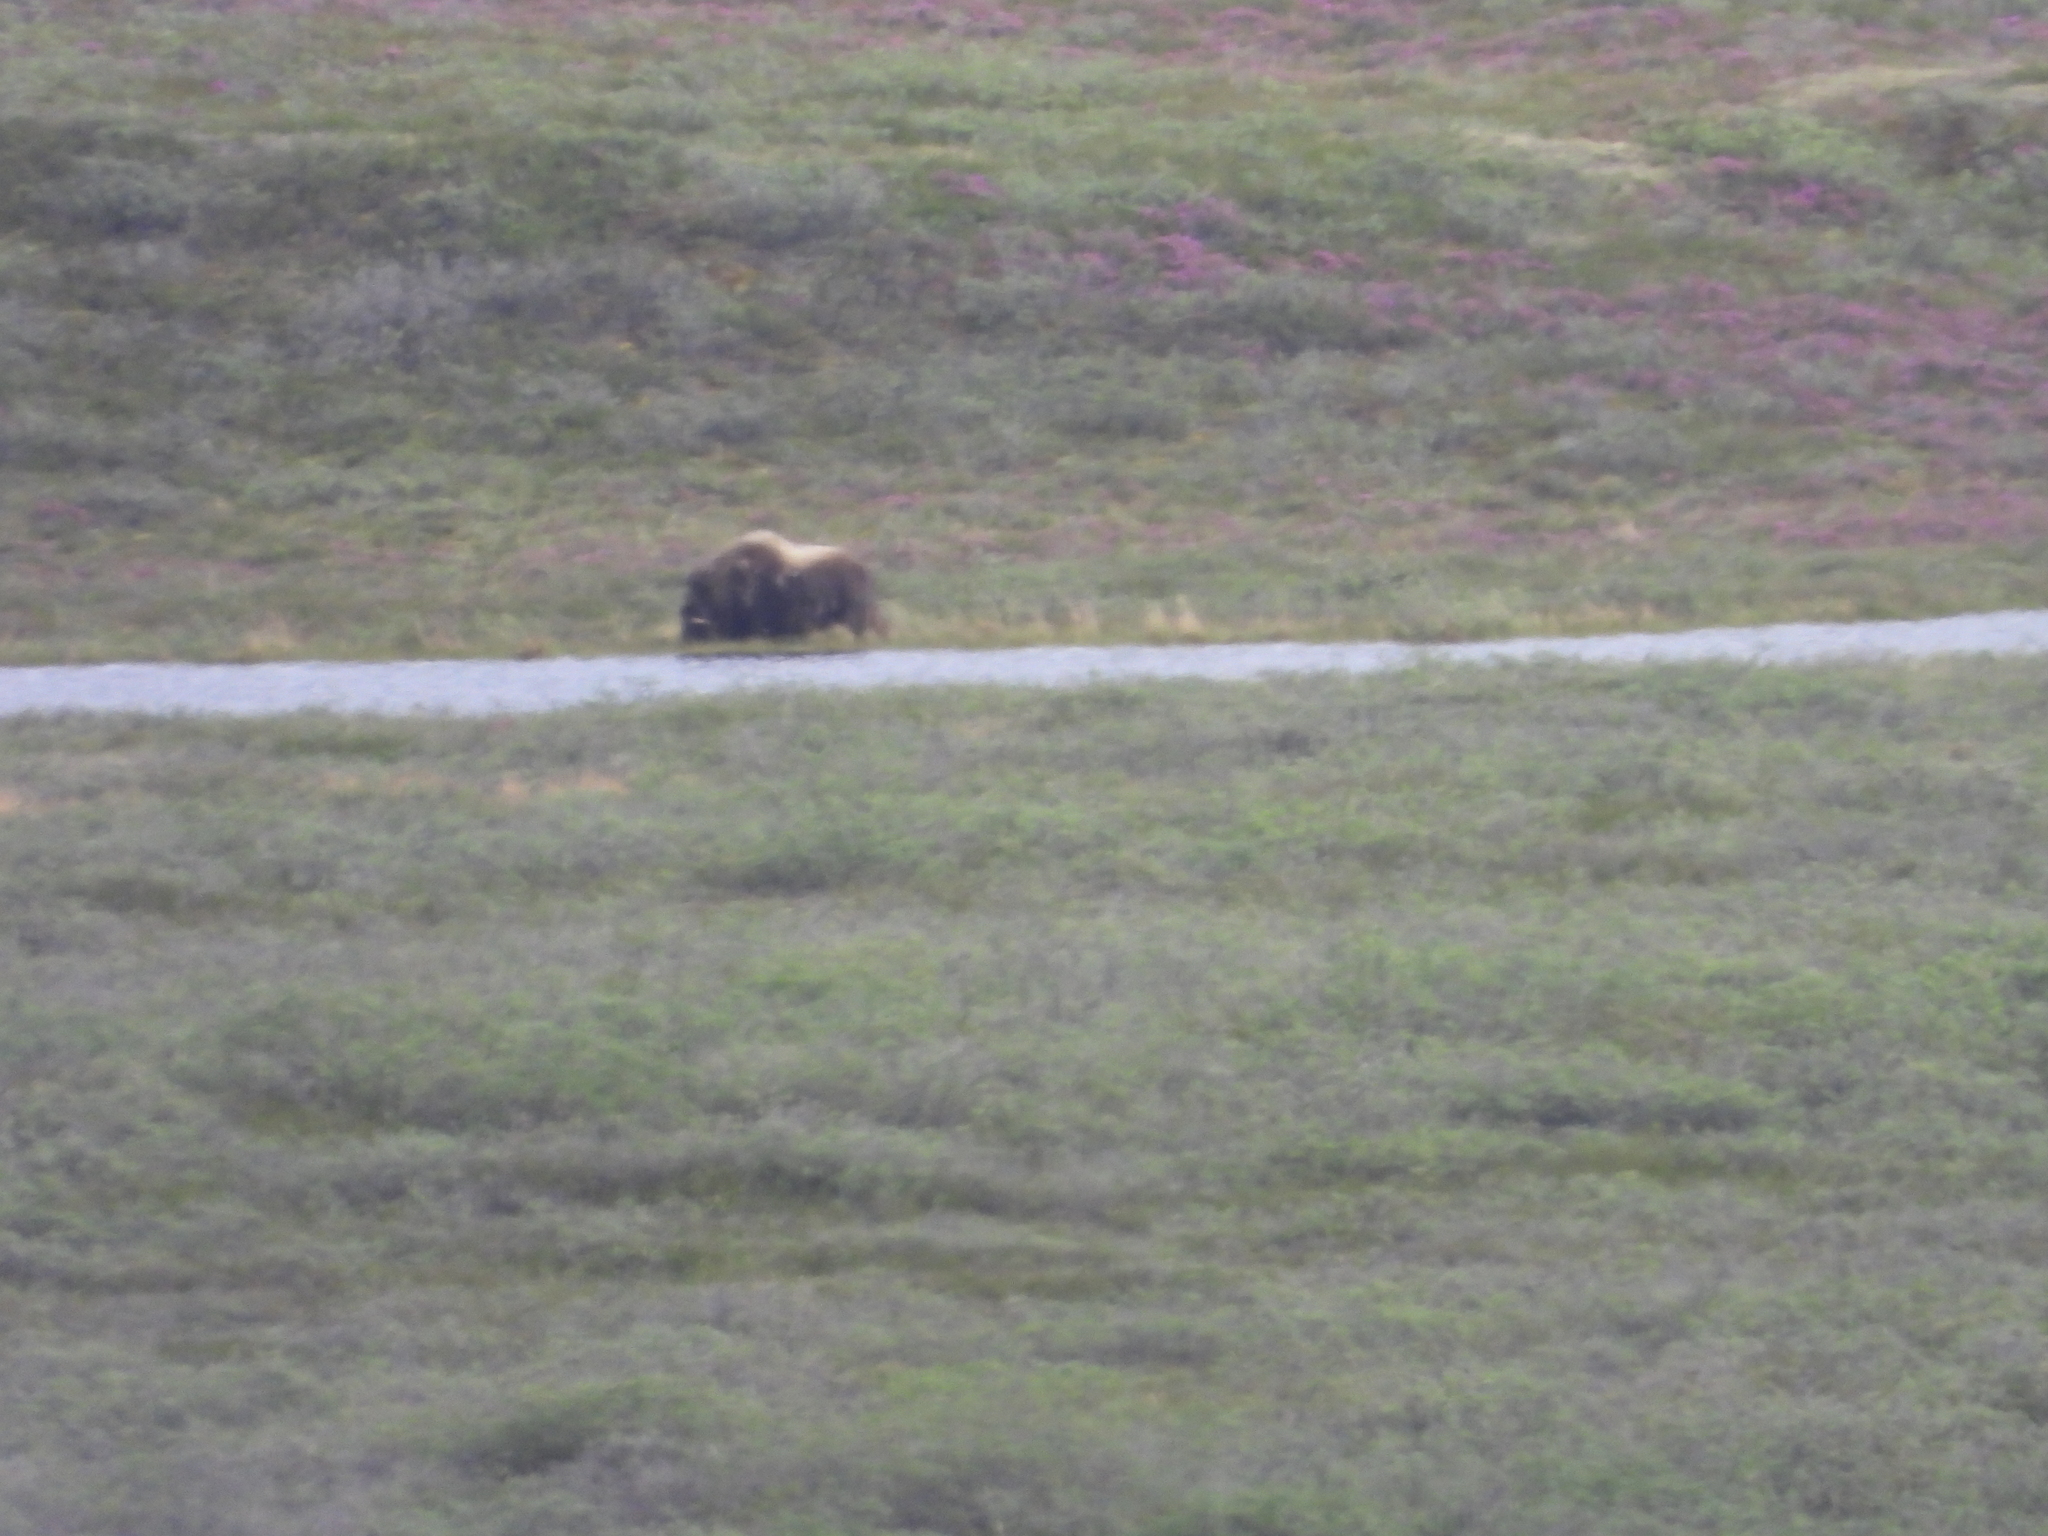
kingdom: Animalia
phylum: Chordata
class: Mammalia
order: Artiodactyla
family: Bovidae
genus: Ovibos
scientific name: Ovibos moschatus
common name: Muskox
